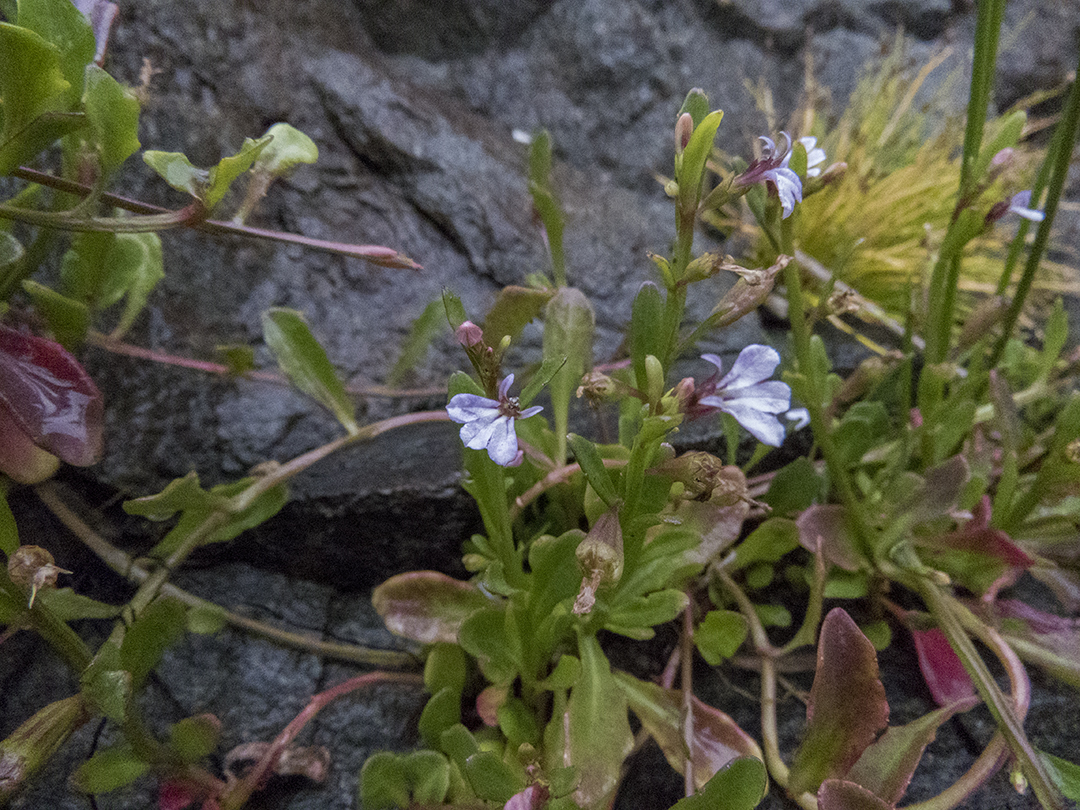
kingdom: Plantae
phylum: Tracheophyta
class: Magnoliopsida
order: Asterales
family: Campanulaceae
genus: Lobelia
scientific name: Lobelia anceps
